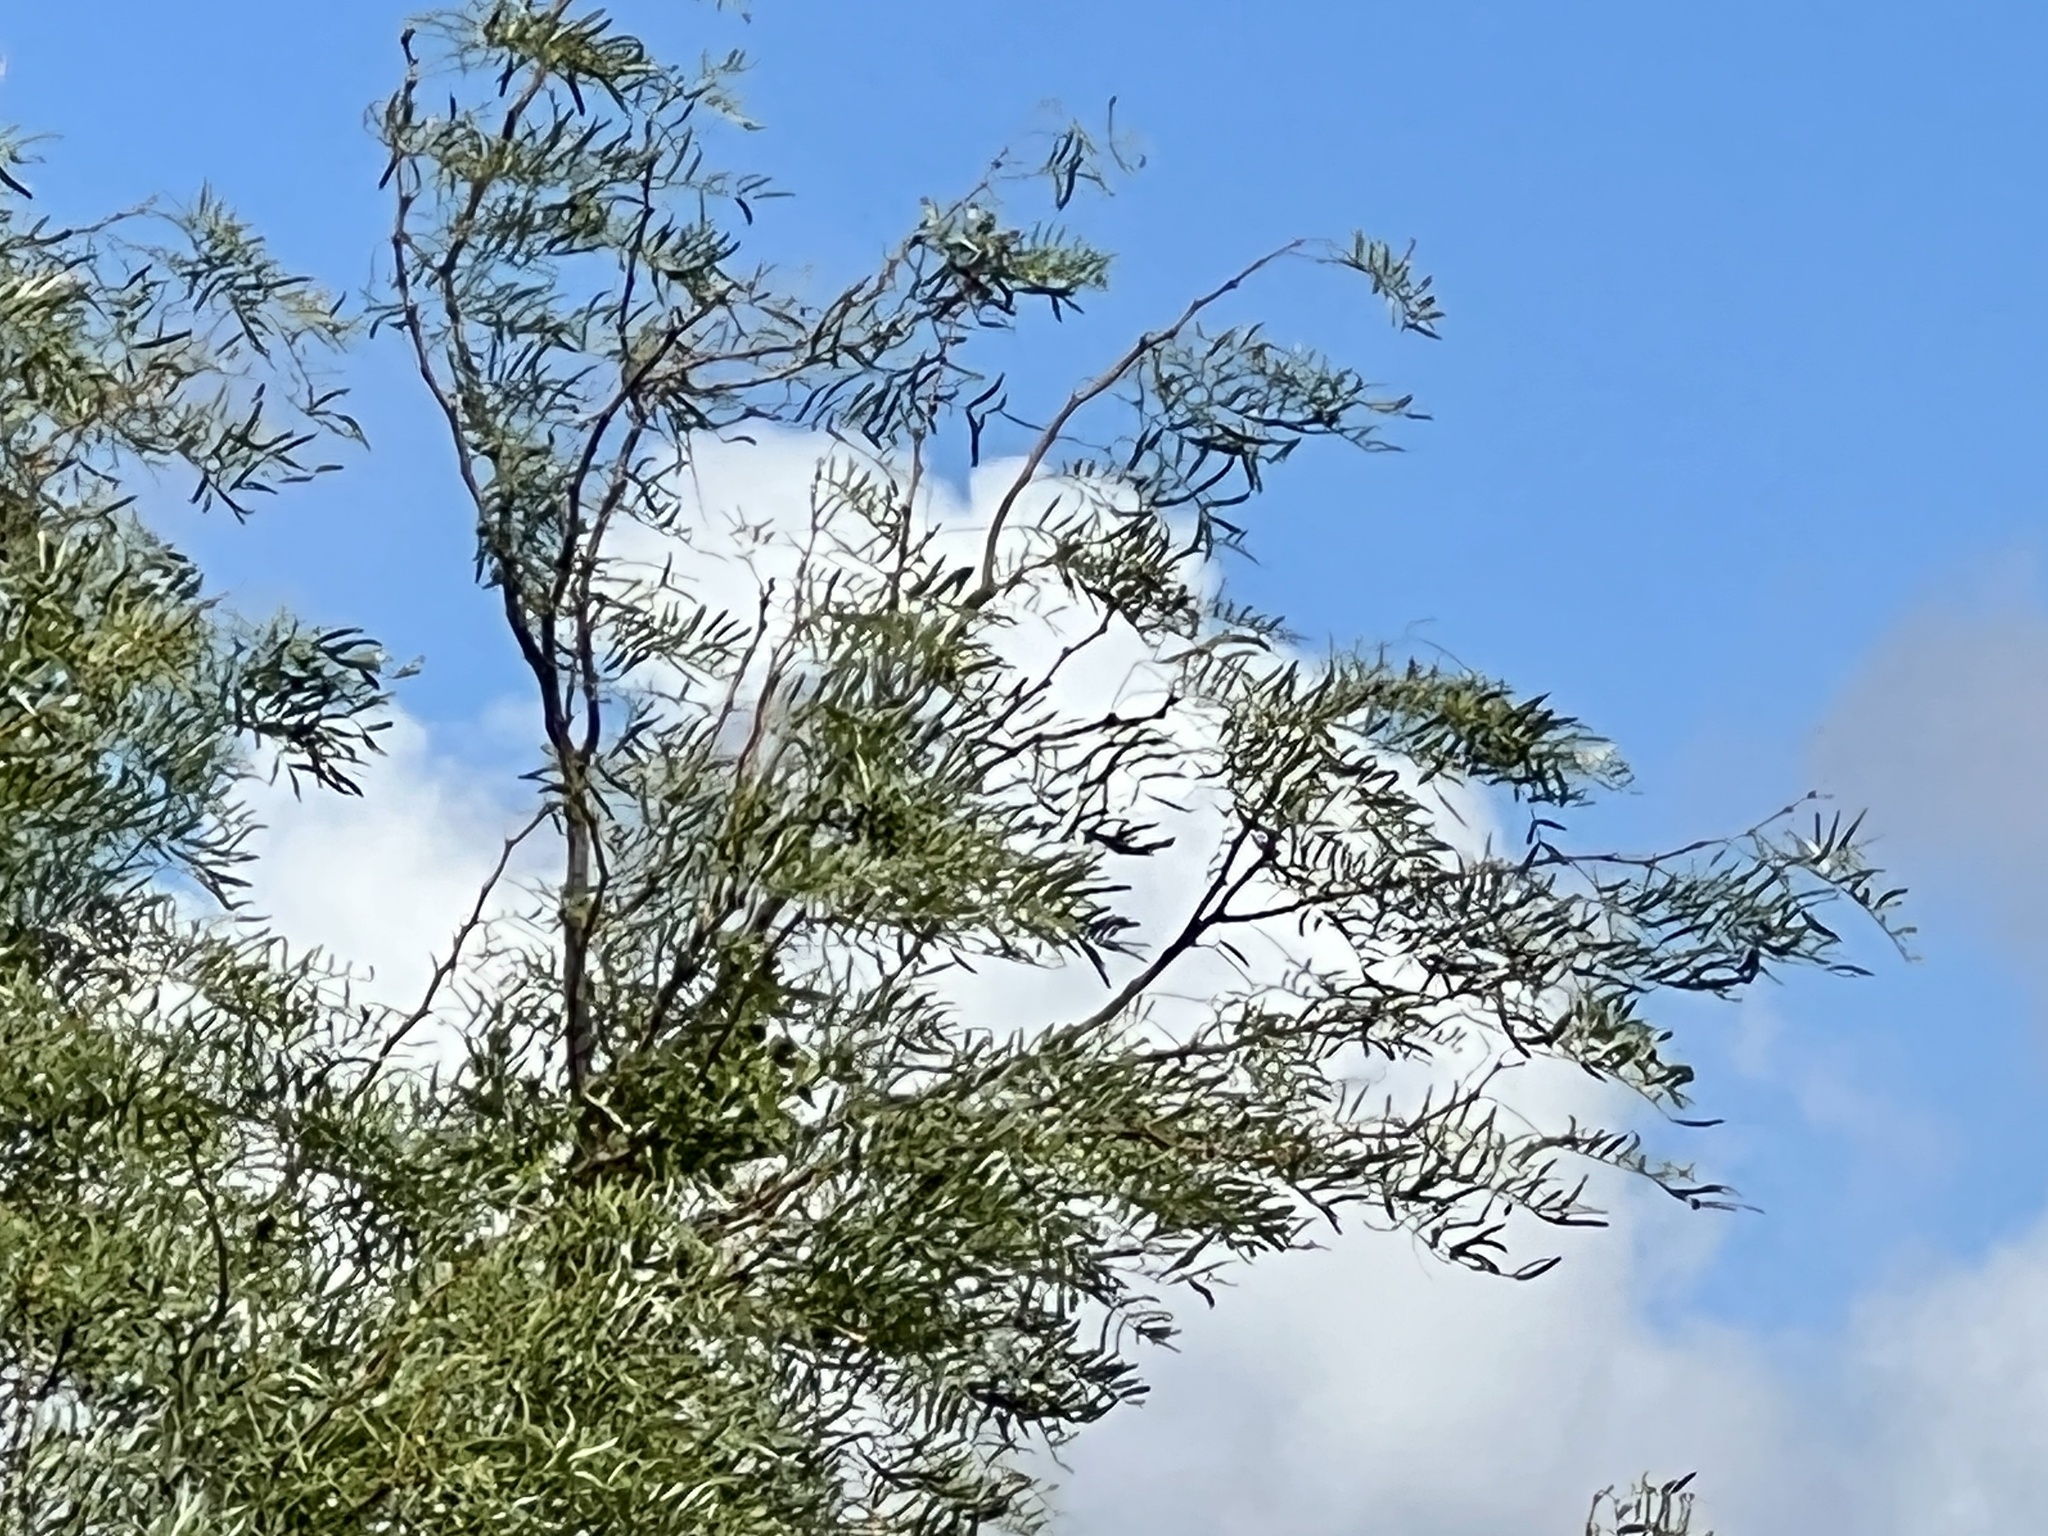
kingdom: Plantae
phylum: Tracheophyta
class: Magnoliopsida
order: Fabales
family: Fabaceae
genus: Prosopis
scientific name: Prosopis glandulosa
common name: Honey mesquite
